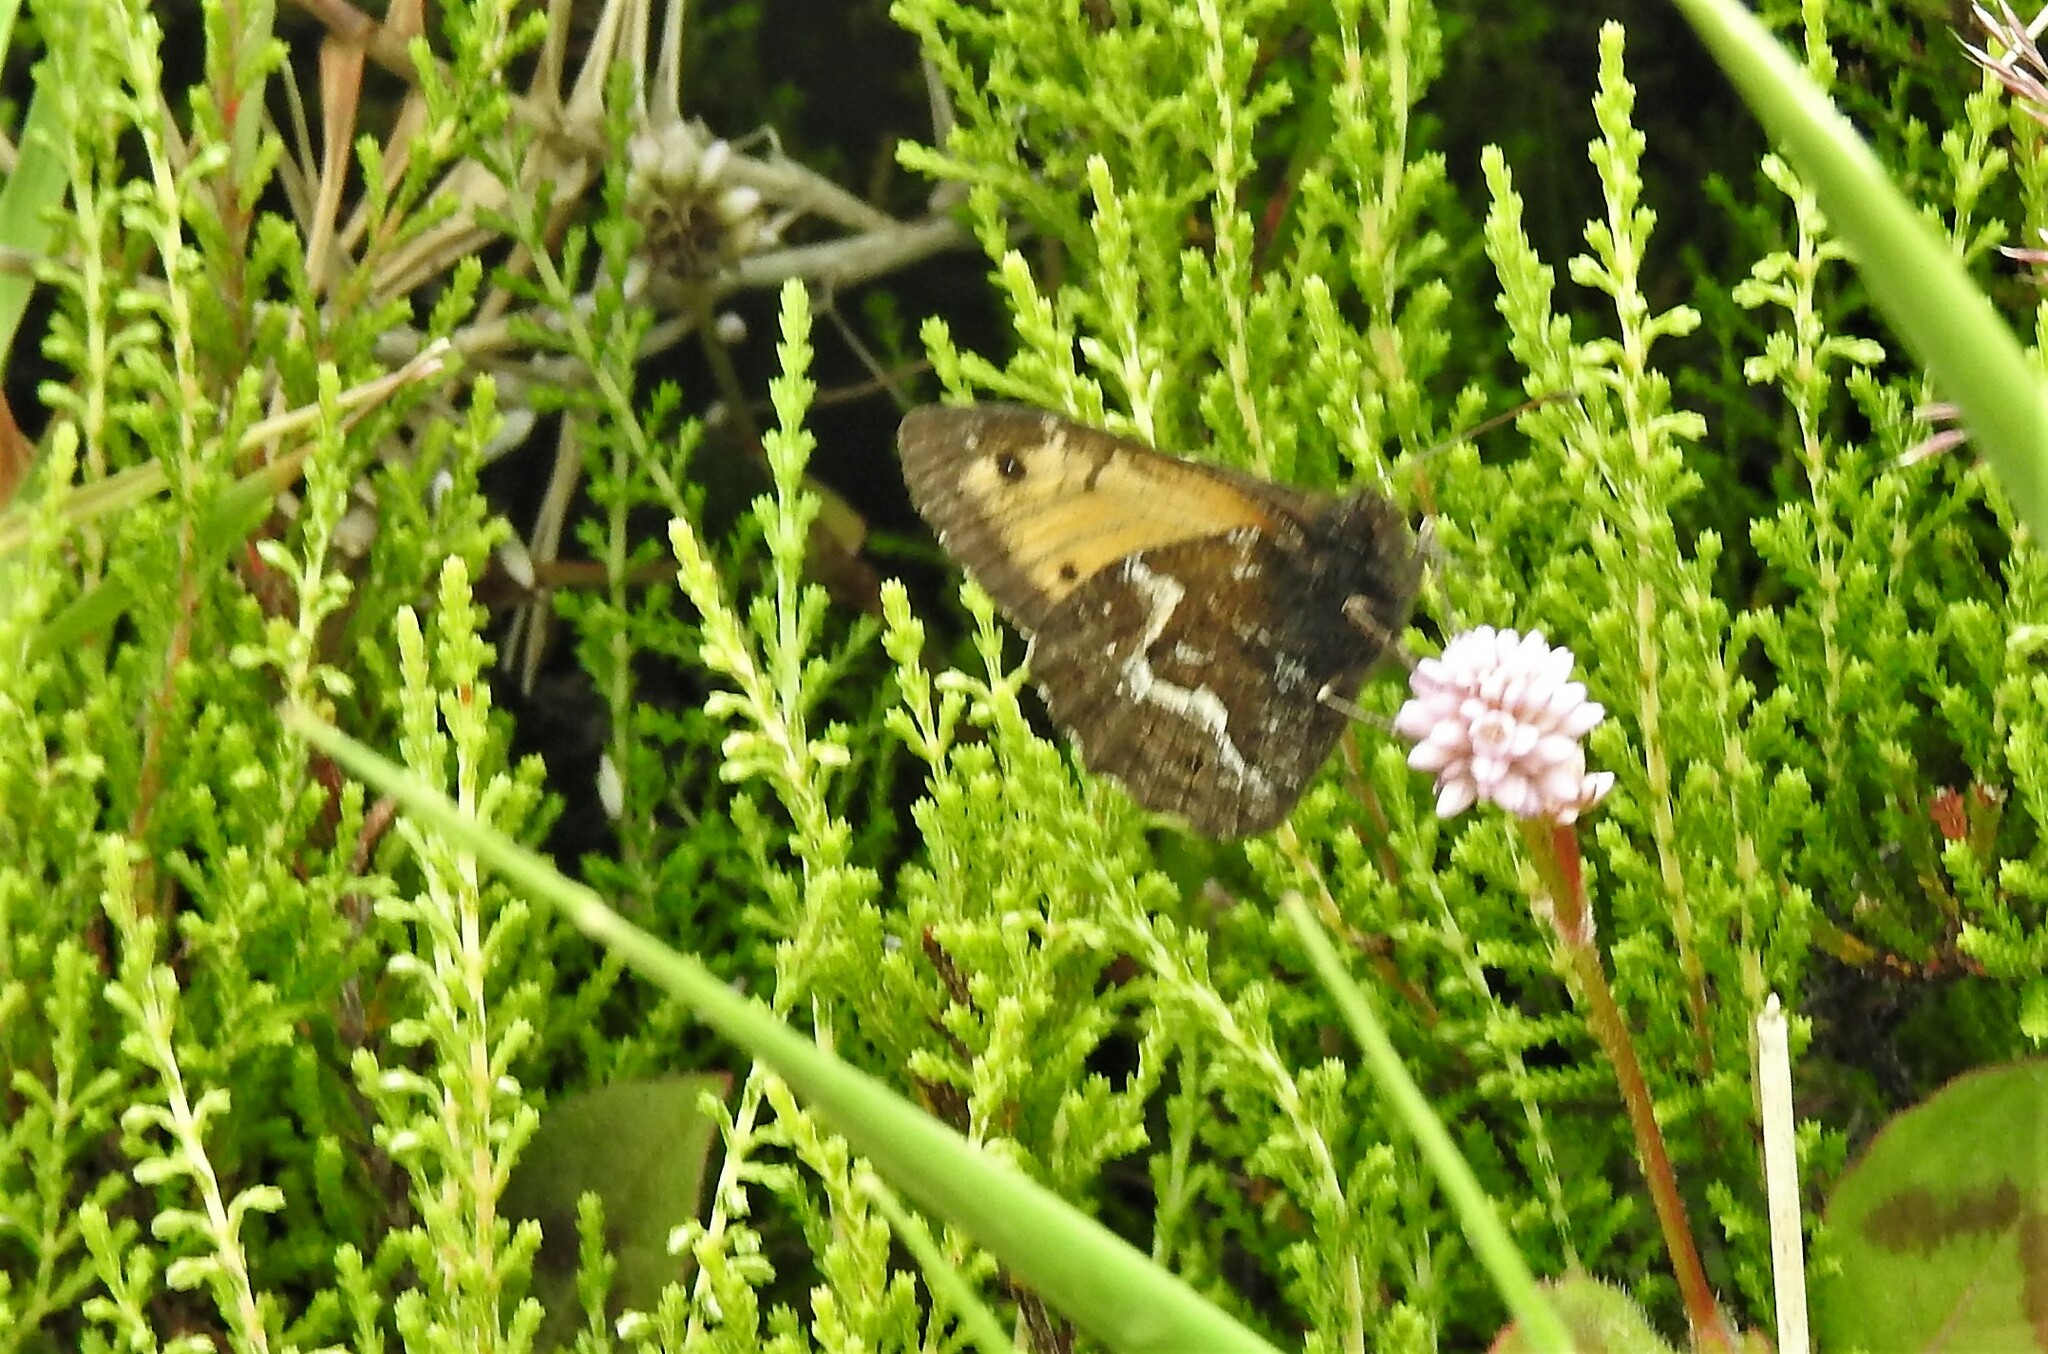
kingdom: Animalia
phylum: Arthropoda
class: Insecta
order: Lepidoptera
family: Nymphalidae
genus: Hipparchia
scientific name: Hipparchia azorinus
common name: Azores grayling
